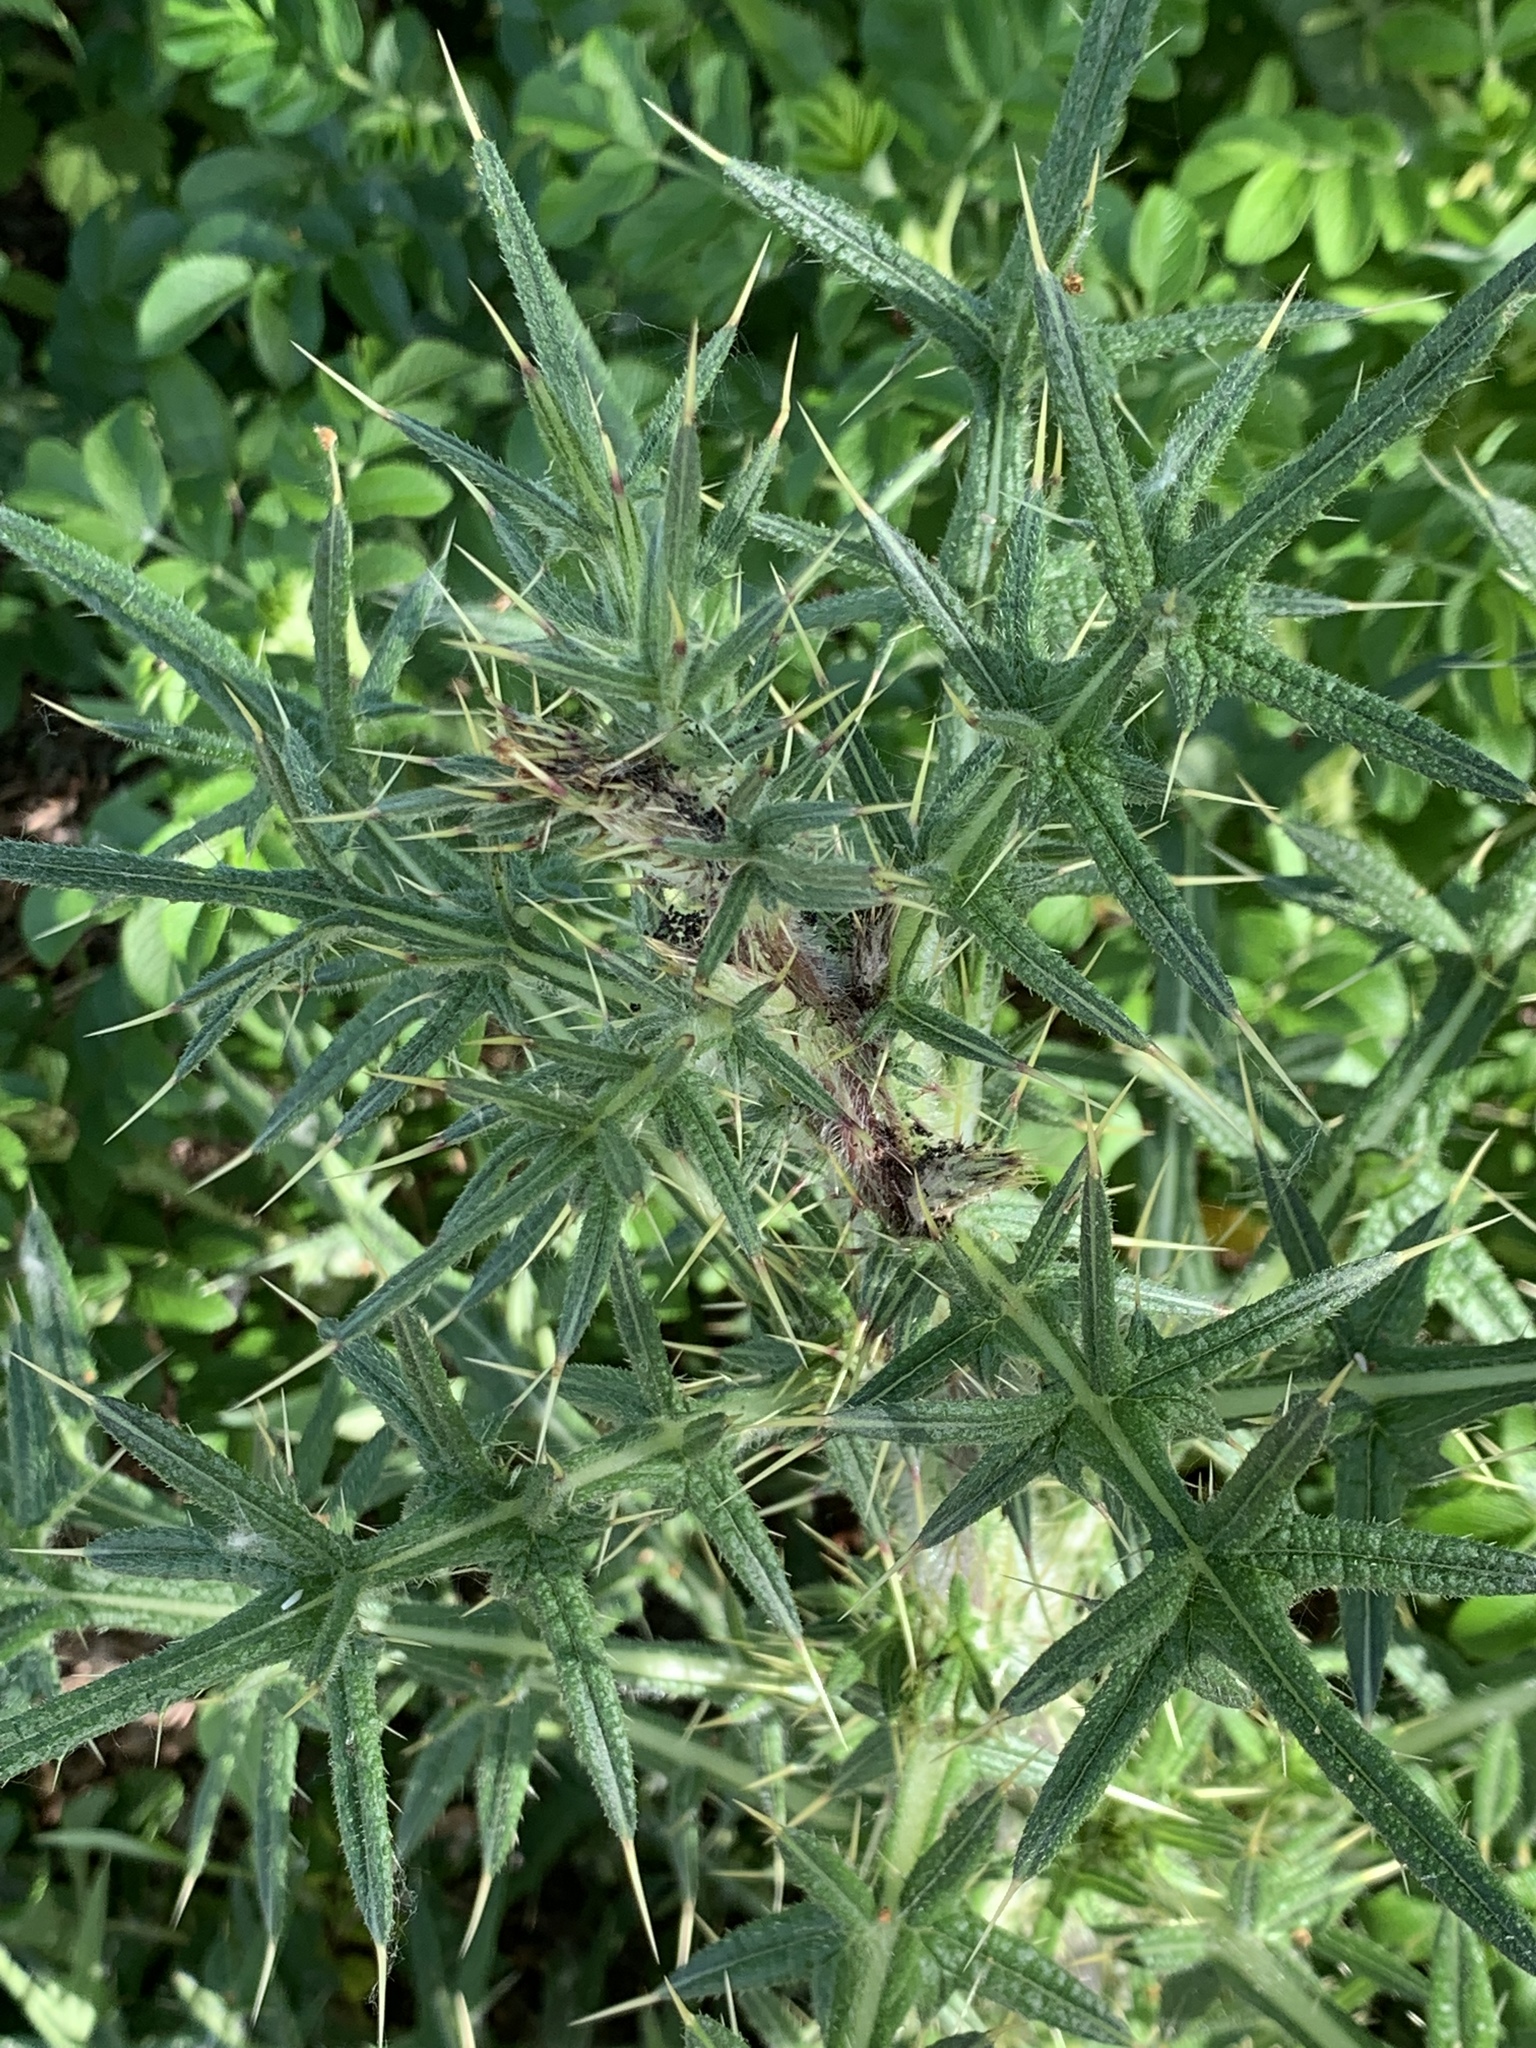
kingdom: Plantae
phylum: Tracheophyta
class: Magnoliopsida
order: Asterales
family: Asteraceae
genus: Cirsium
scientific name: Cirsium vulgare
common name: Bull thistle
